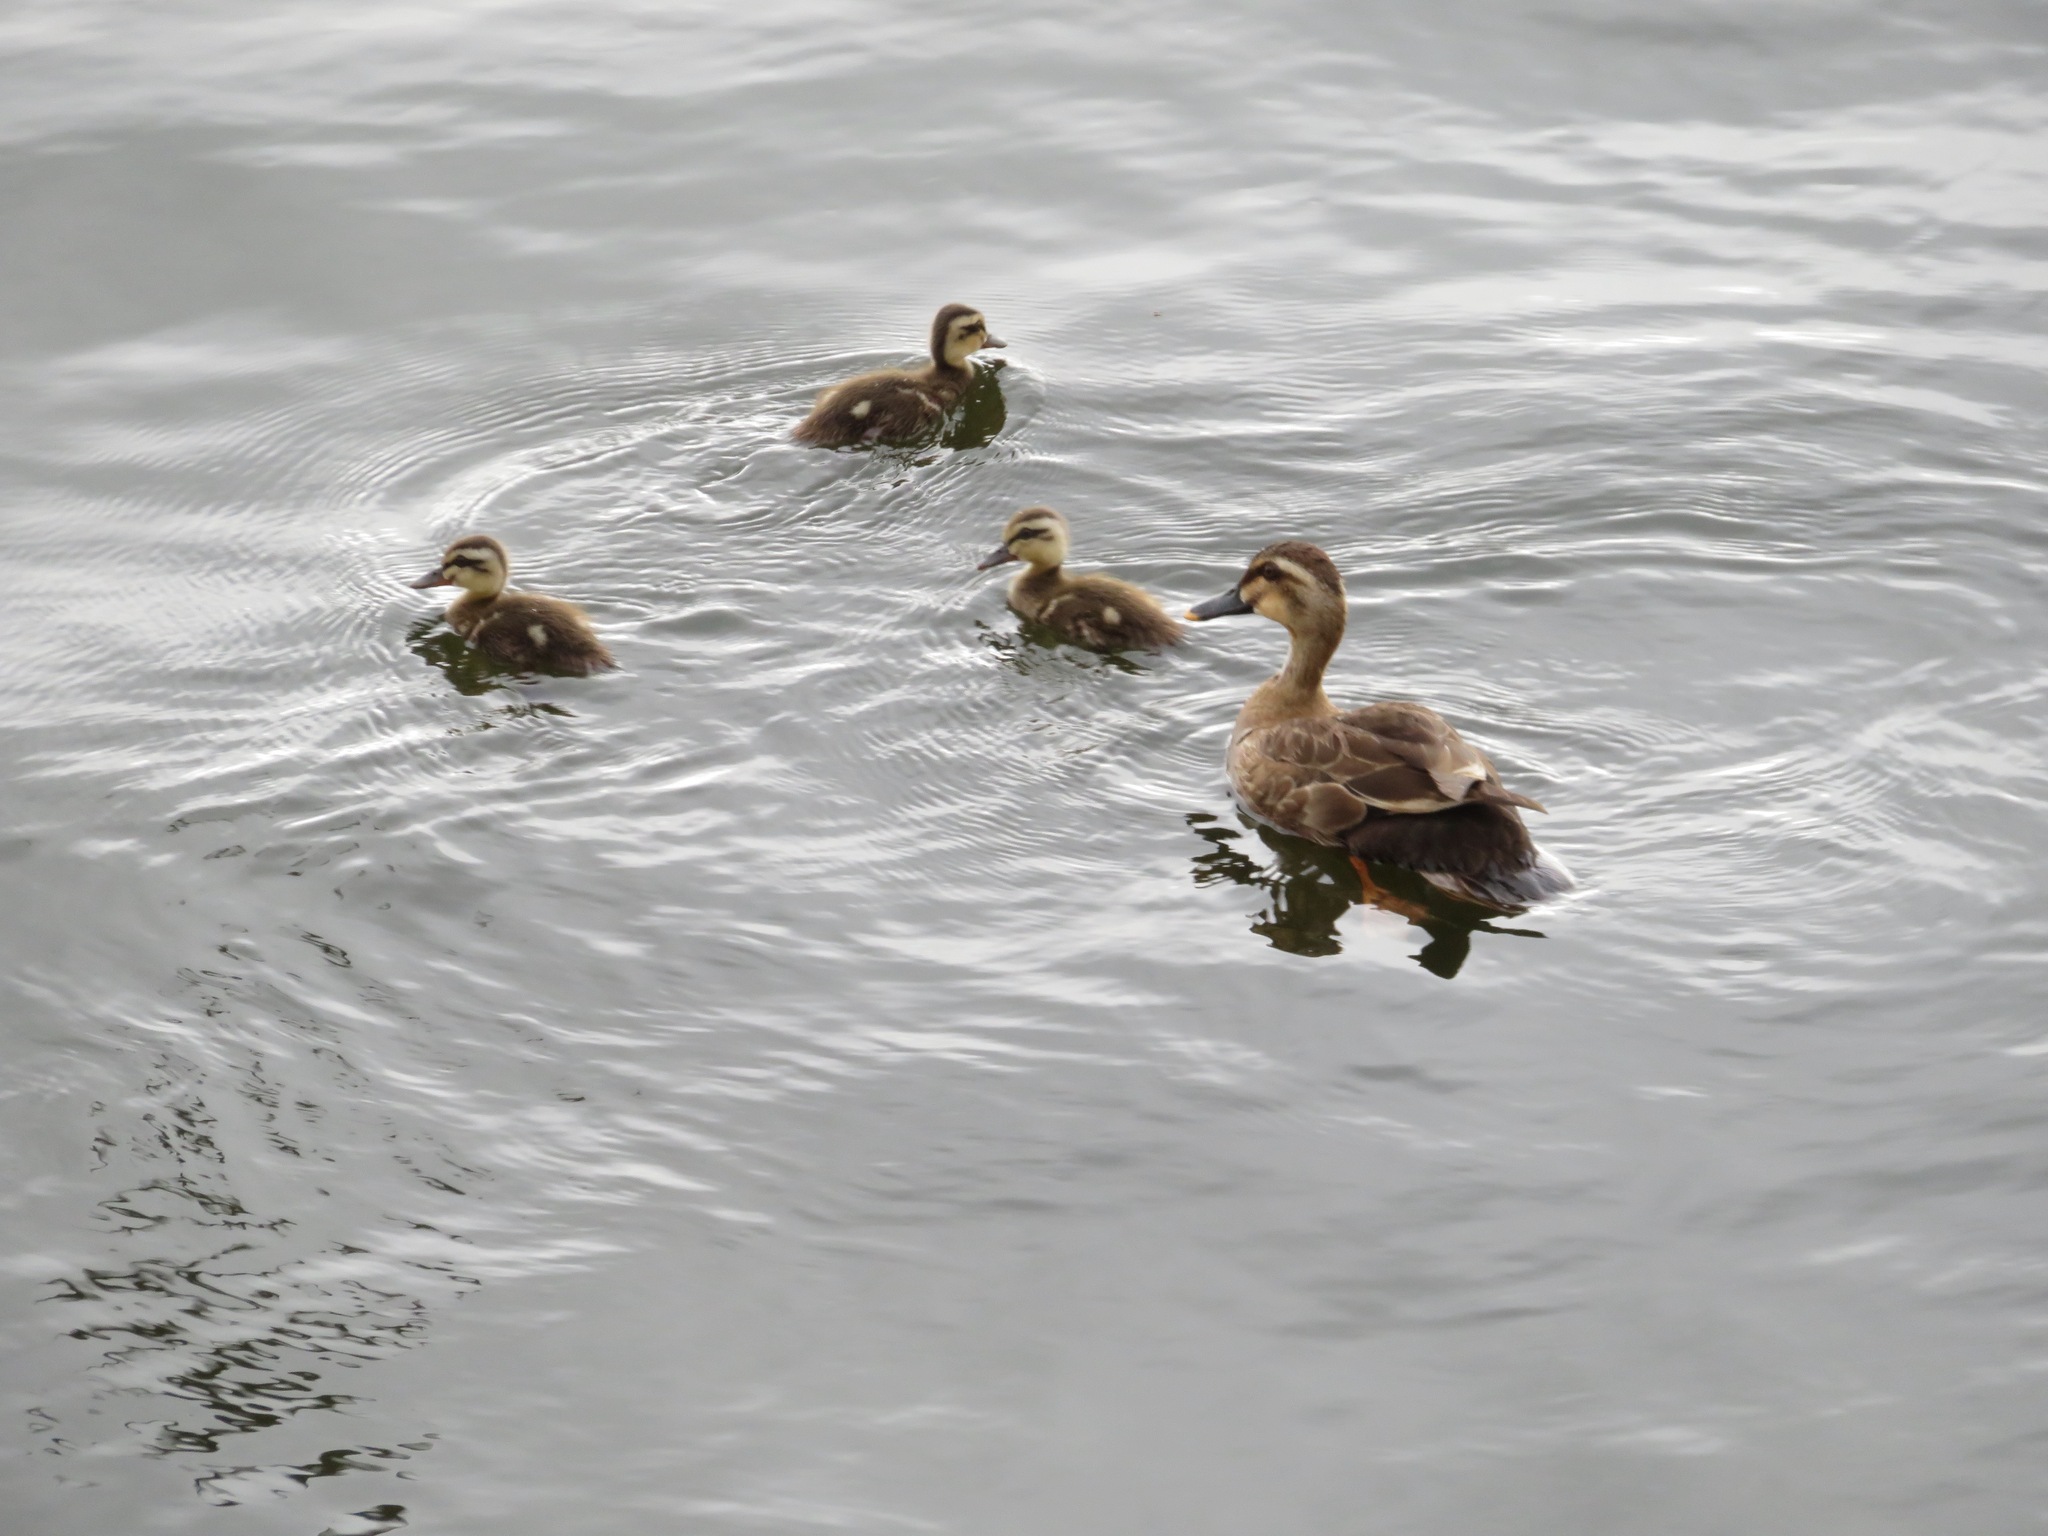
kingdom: Animalia
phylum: Chordata
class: Aves
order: Anseriformes
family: Anatidae
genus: Anas
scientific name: Anas zonorhyncha
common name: Eastern spot-billed duck
